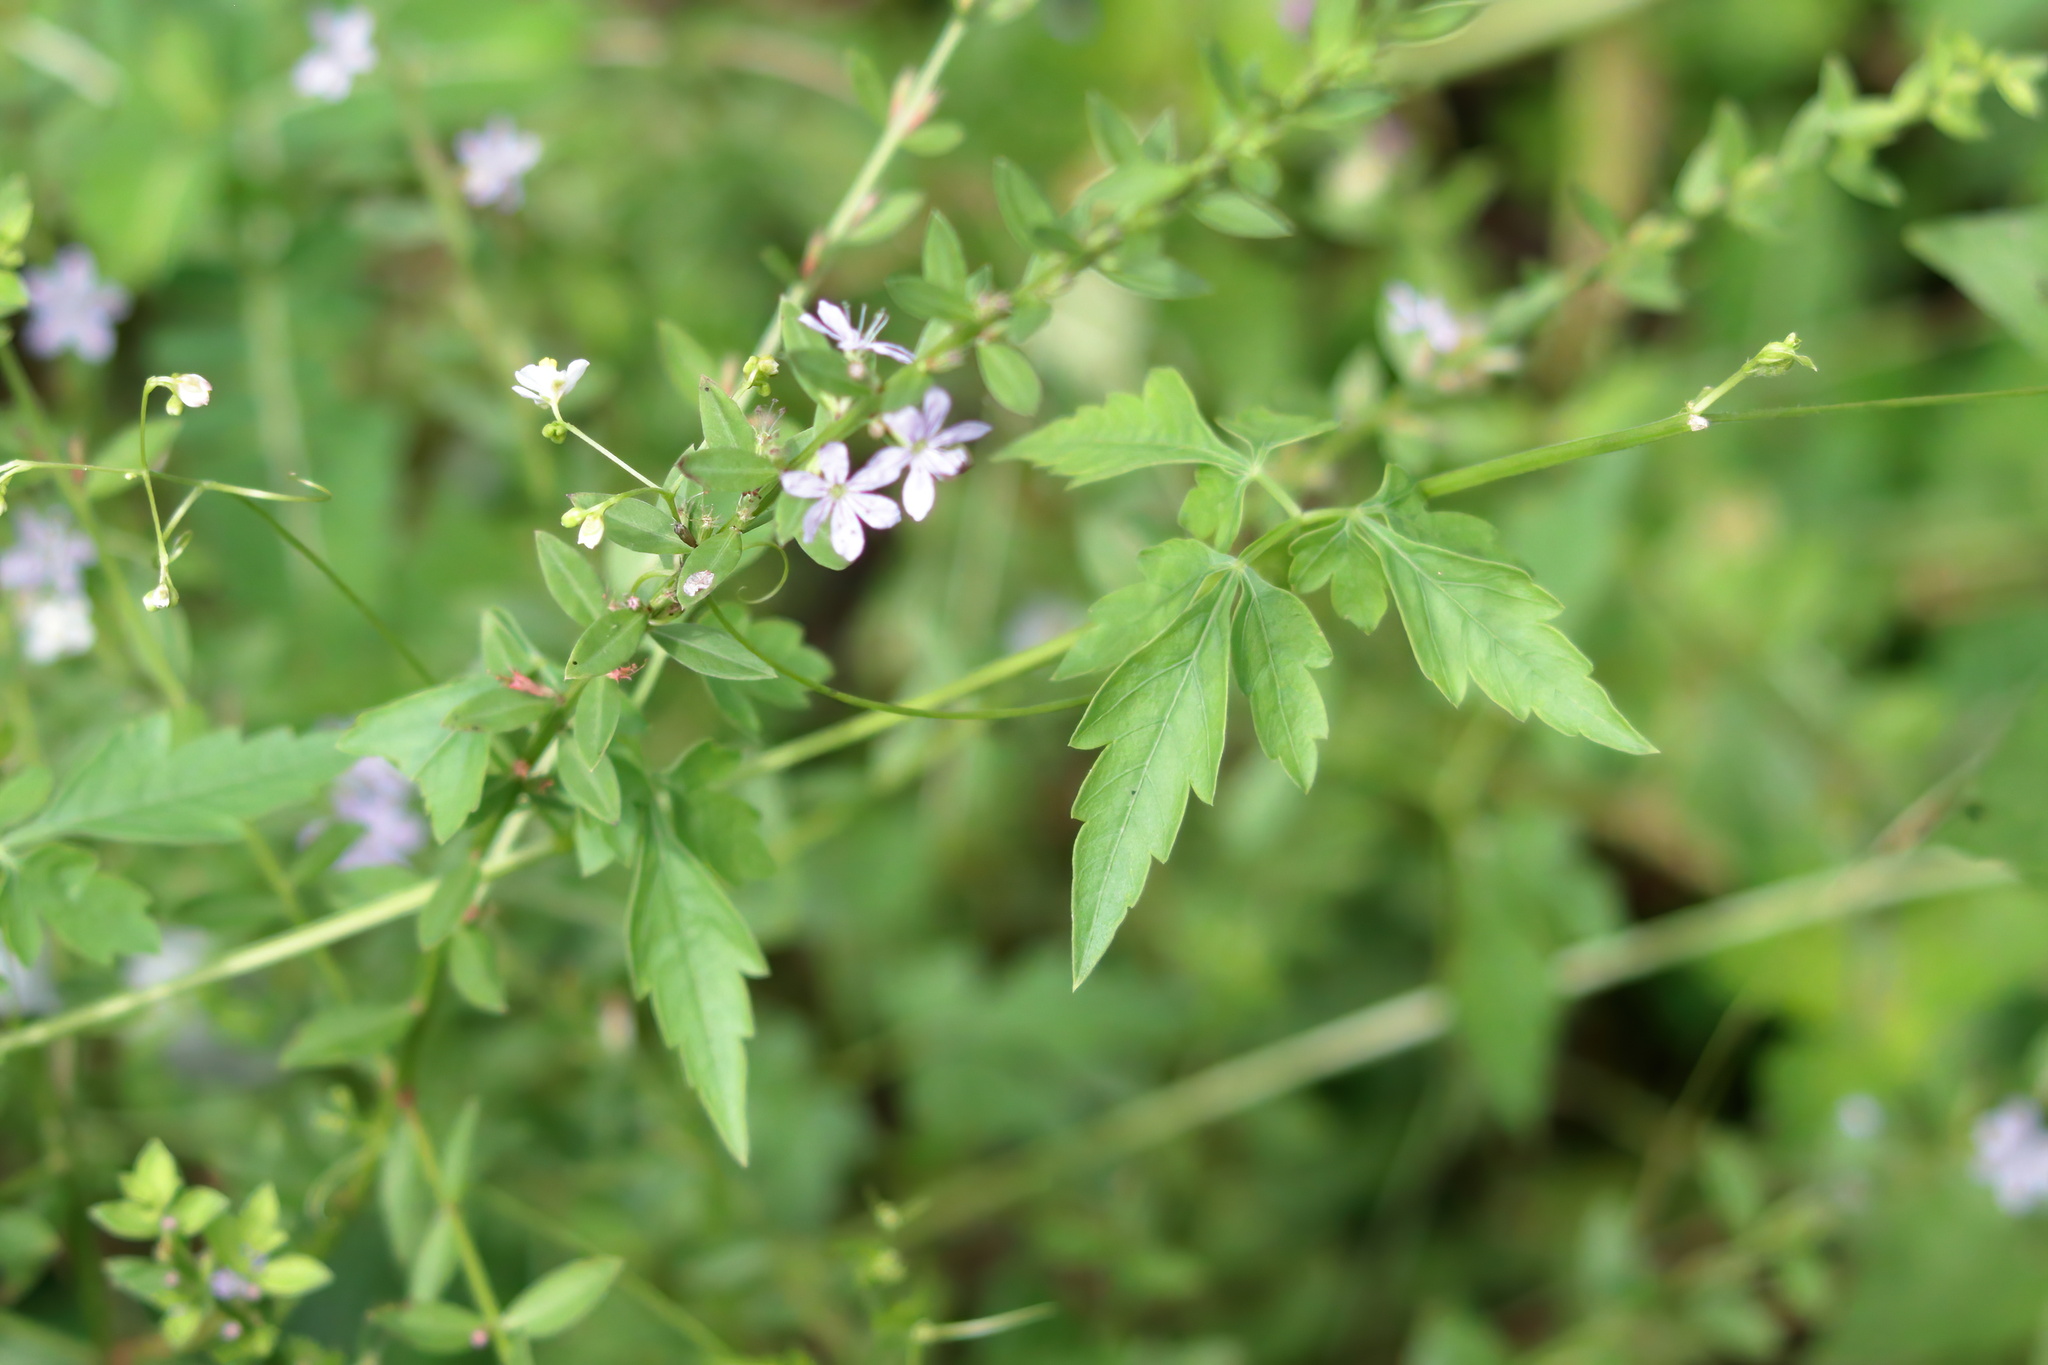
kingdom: Plantae
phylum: Tracheophyta
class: Magnoliopsida
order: Myrtales
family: Lythraceae
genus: Lythrum
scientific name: Lythrum alatum
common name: Winged loosestrife
